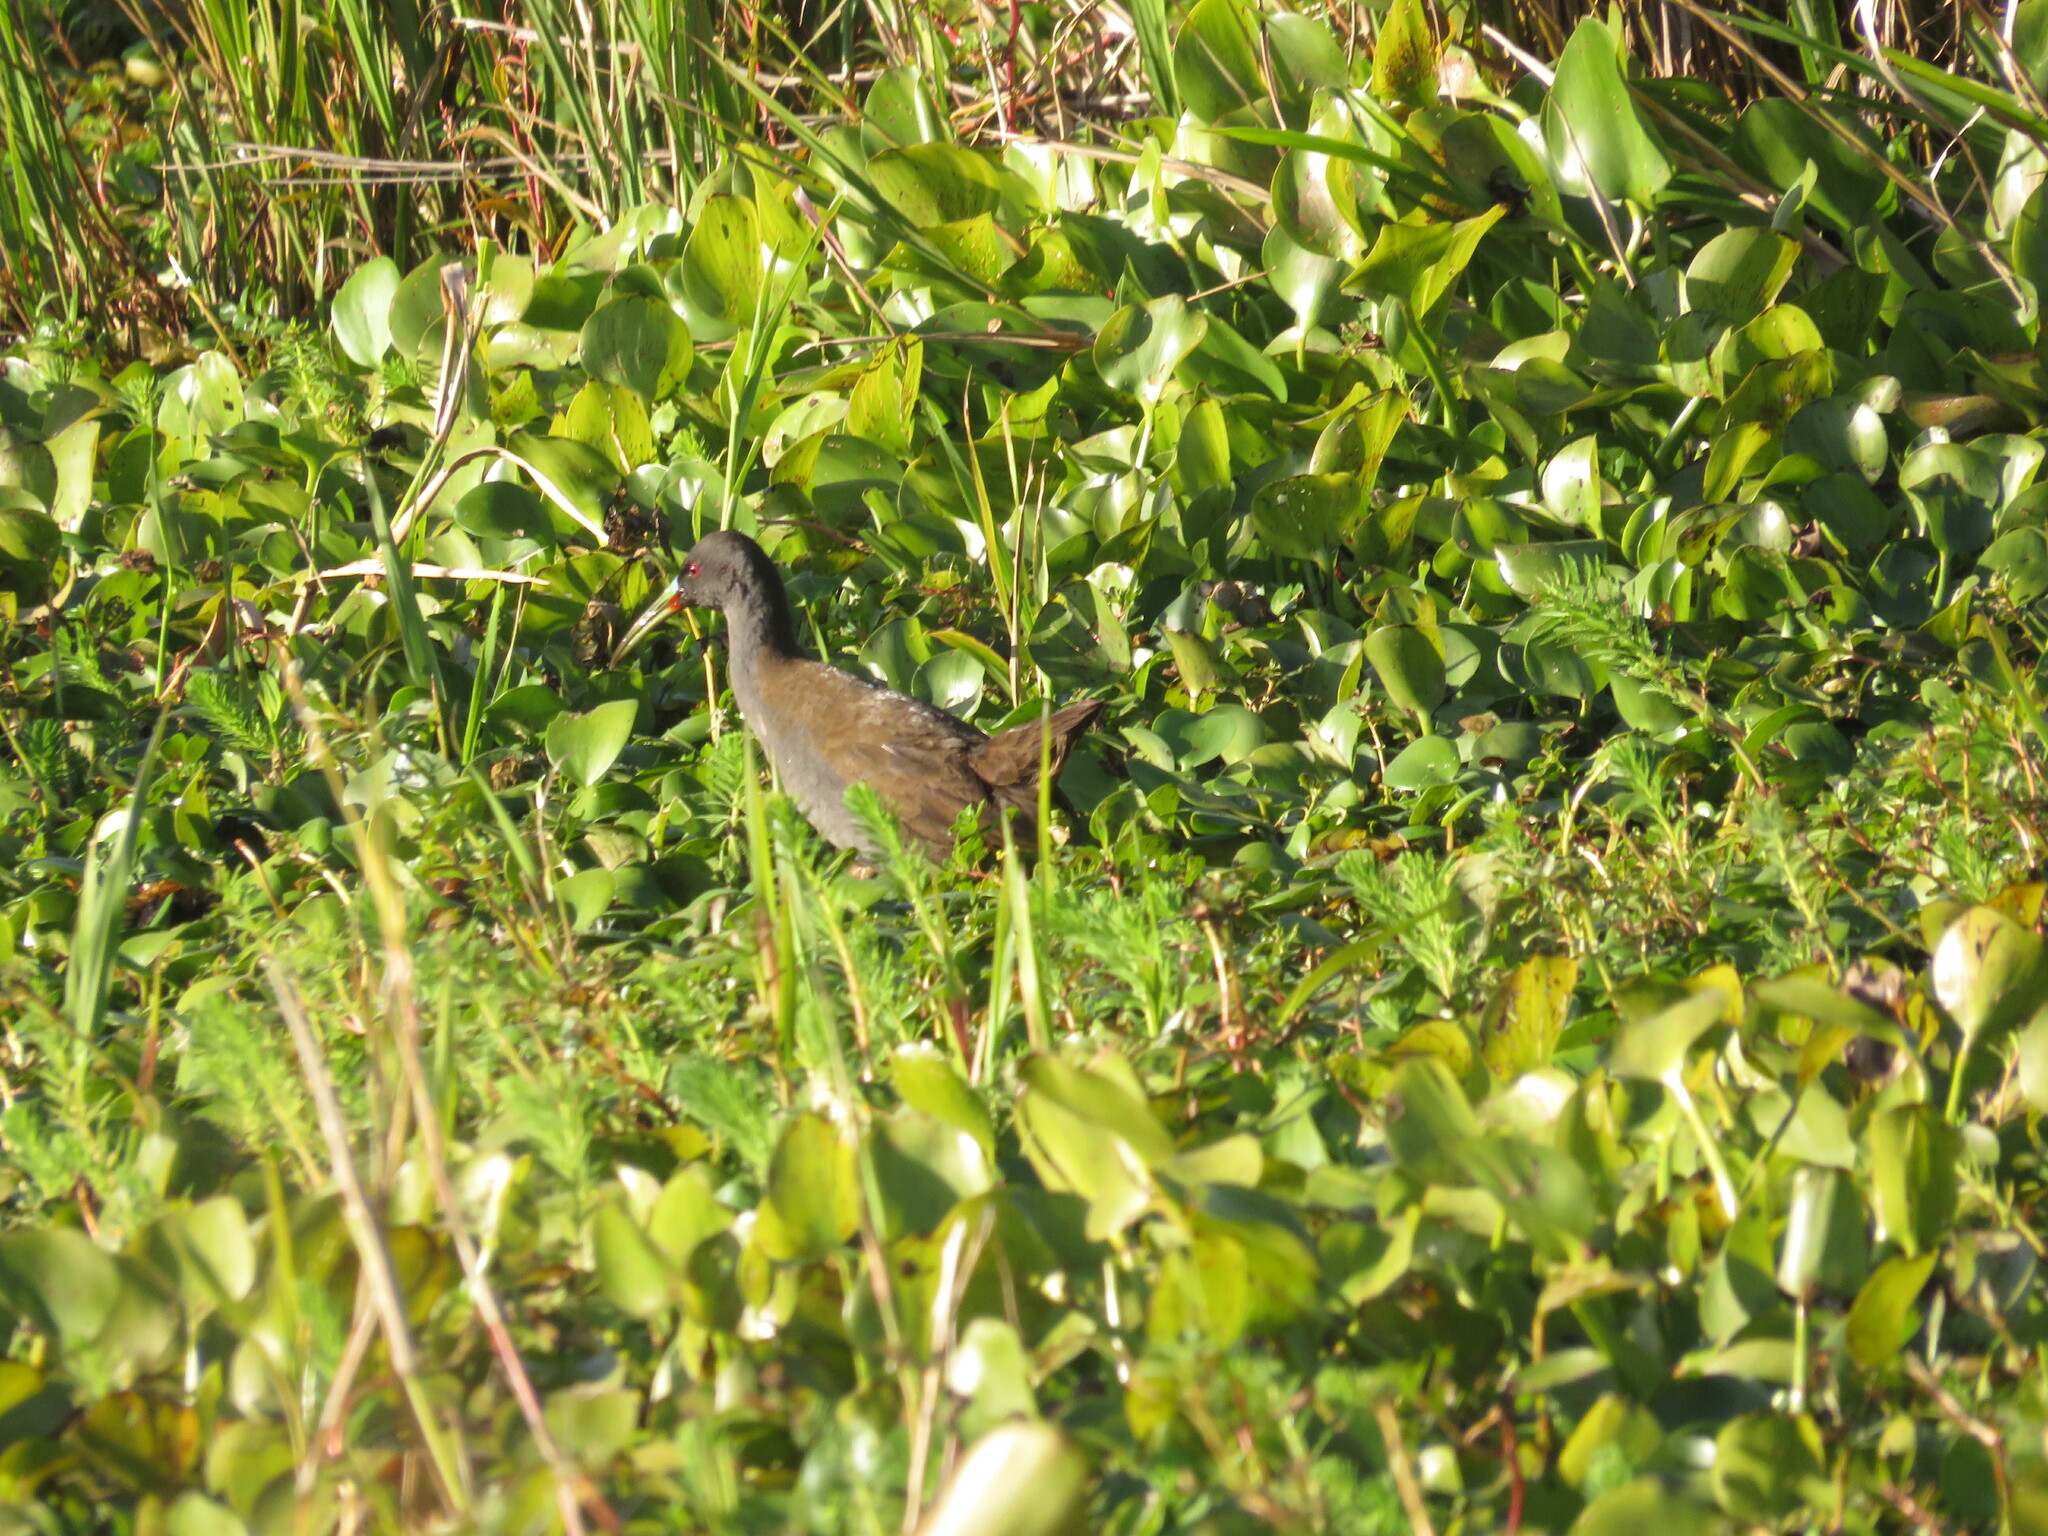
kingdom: Animalia
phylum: Chordata
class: Aves
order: Gruiformes
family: Rallidae
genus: Pardirallus
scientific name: Pardirallus sanguinolentus
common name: Plumbeous rail
